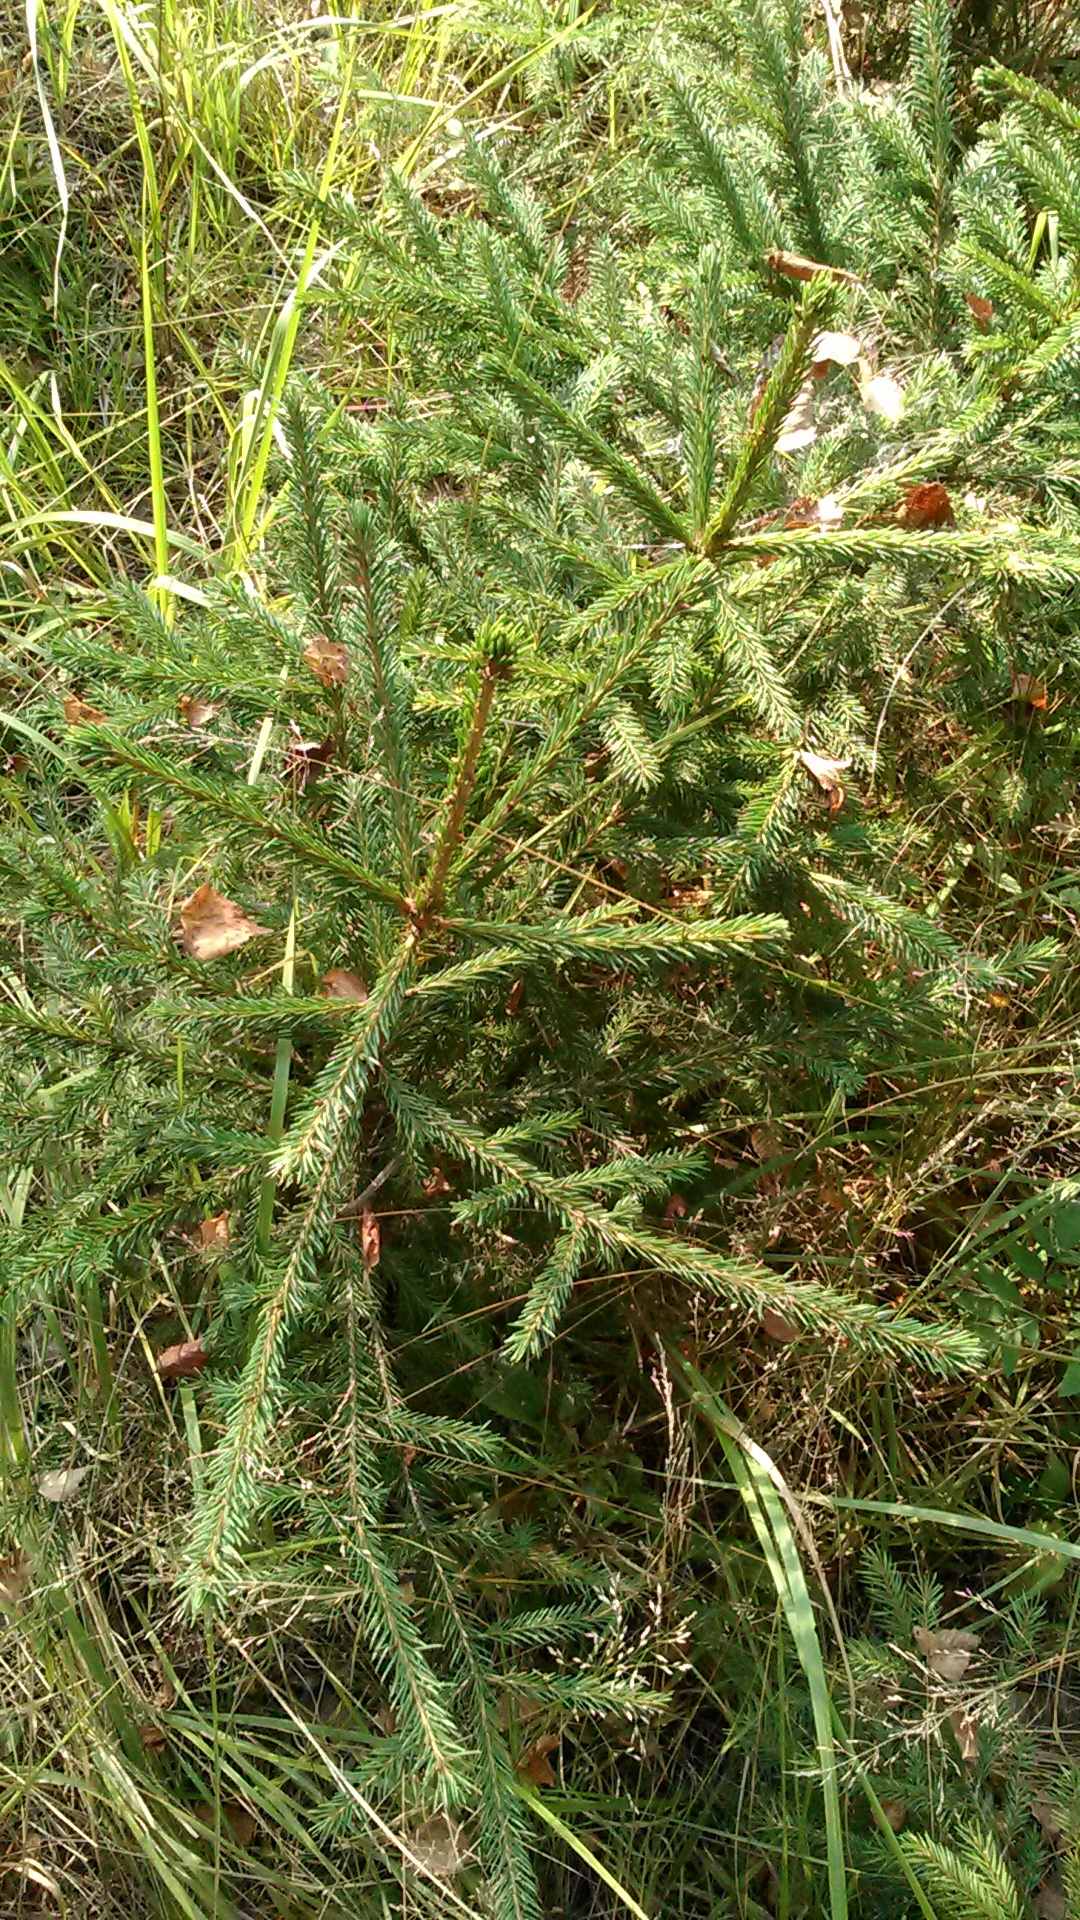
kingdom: Plantae
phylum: Tracheophyta
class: Pinopsida
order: Pinales
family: Pinaceae
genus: Picea
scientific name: Picea abies
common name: Norway spruce
